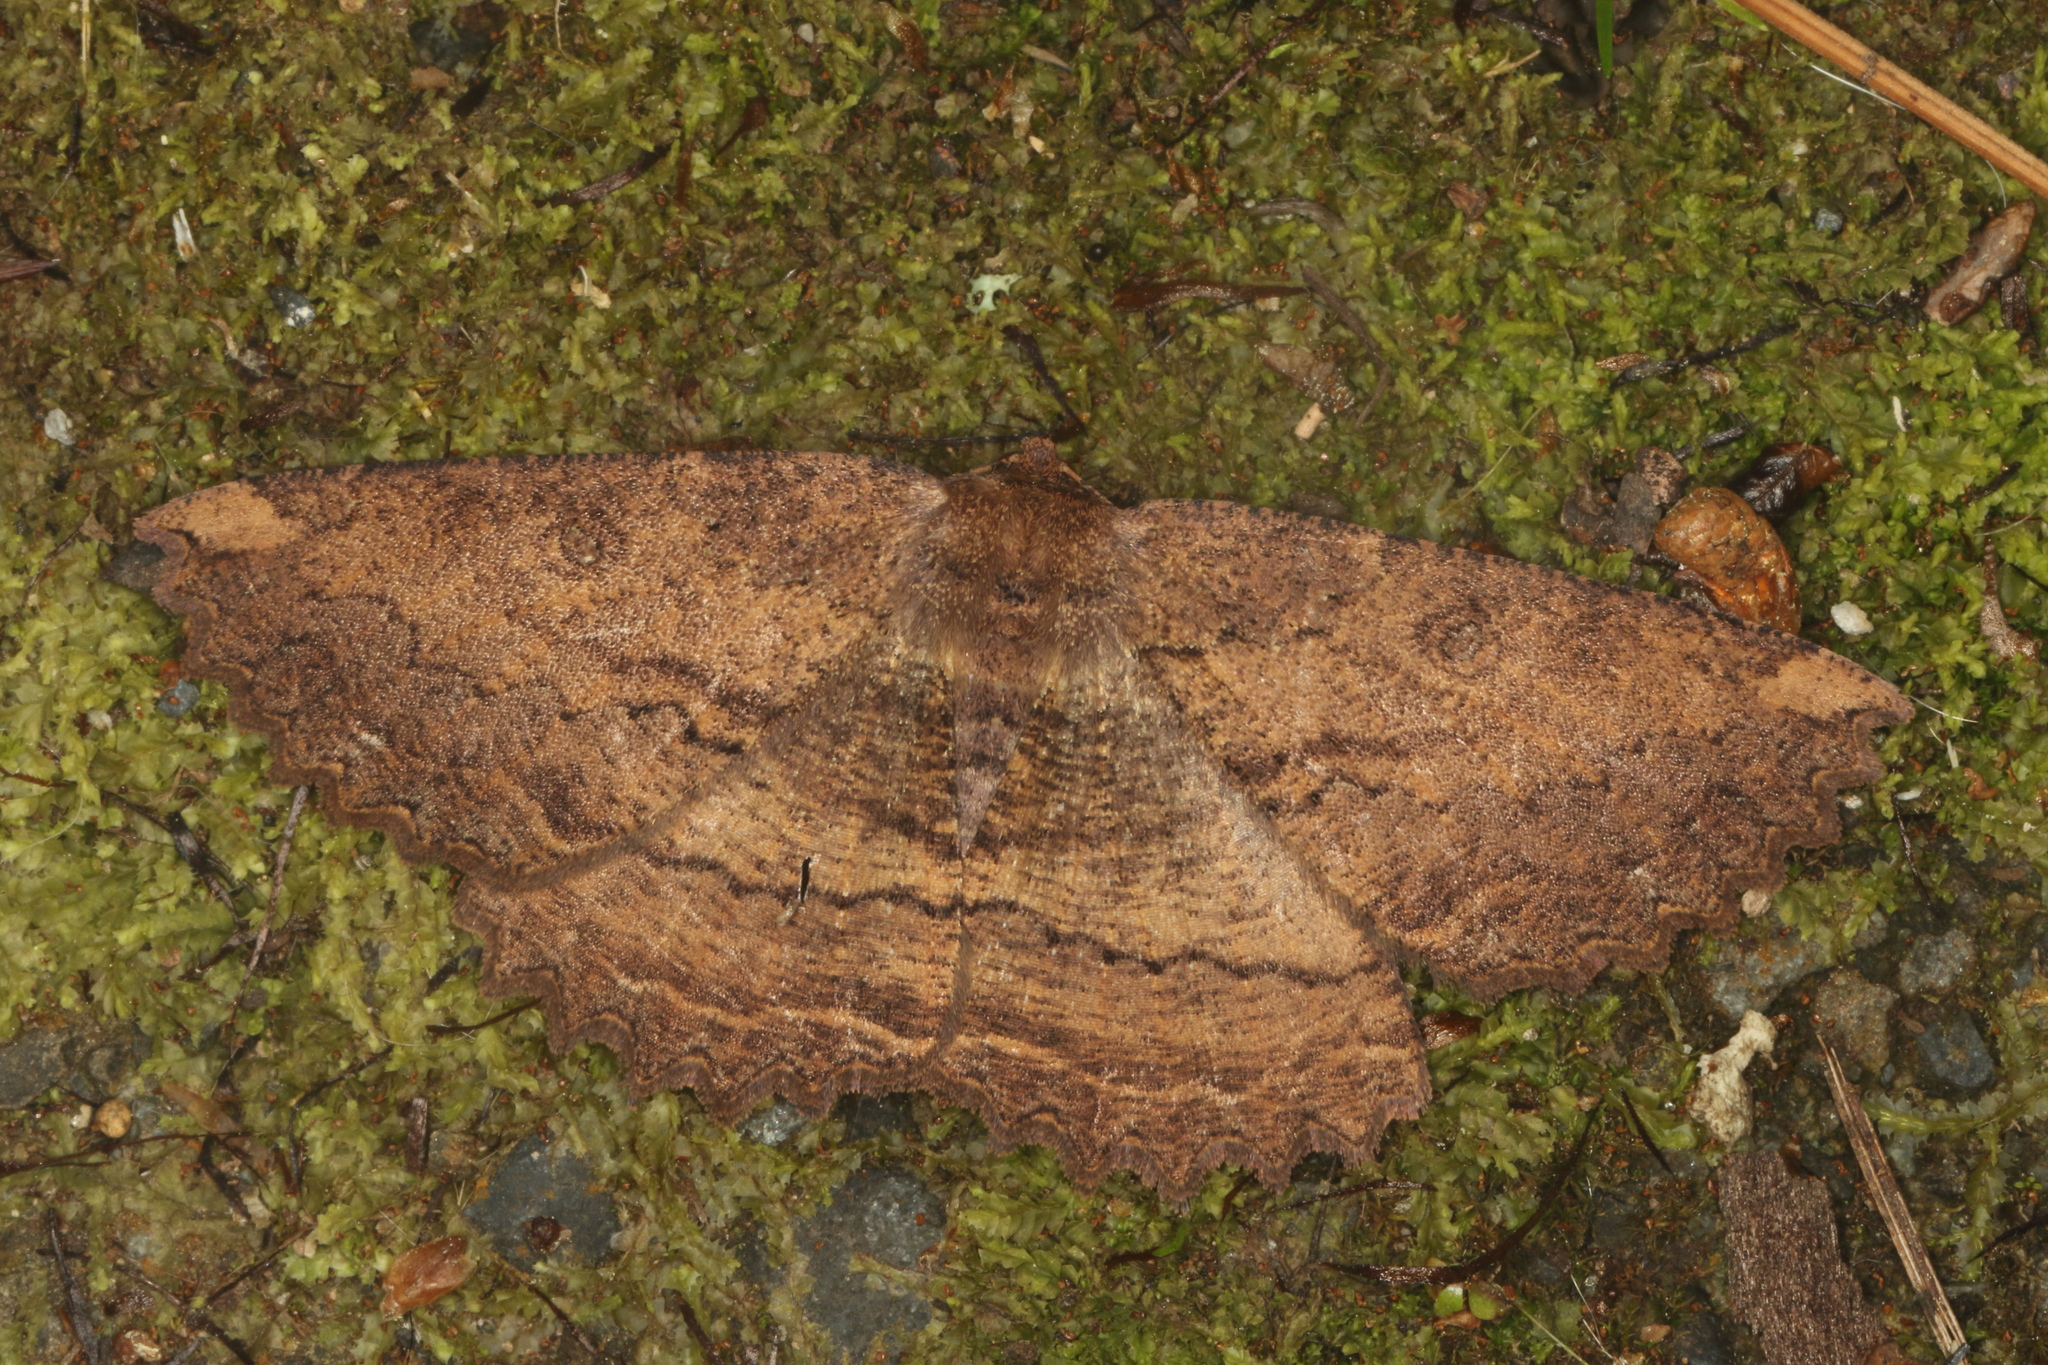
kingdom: Animalia
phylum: Arthropoda
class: Insecta
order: Lepidoptera
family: Geometridae
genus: Gellonia
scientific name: Gellonia dejectaria
